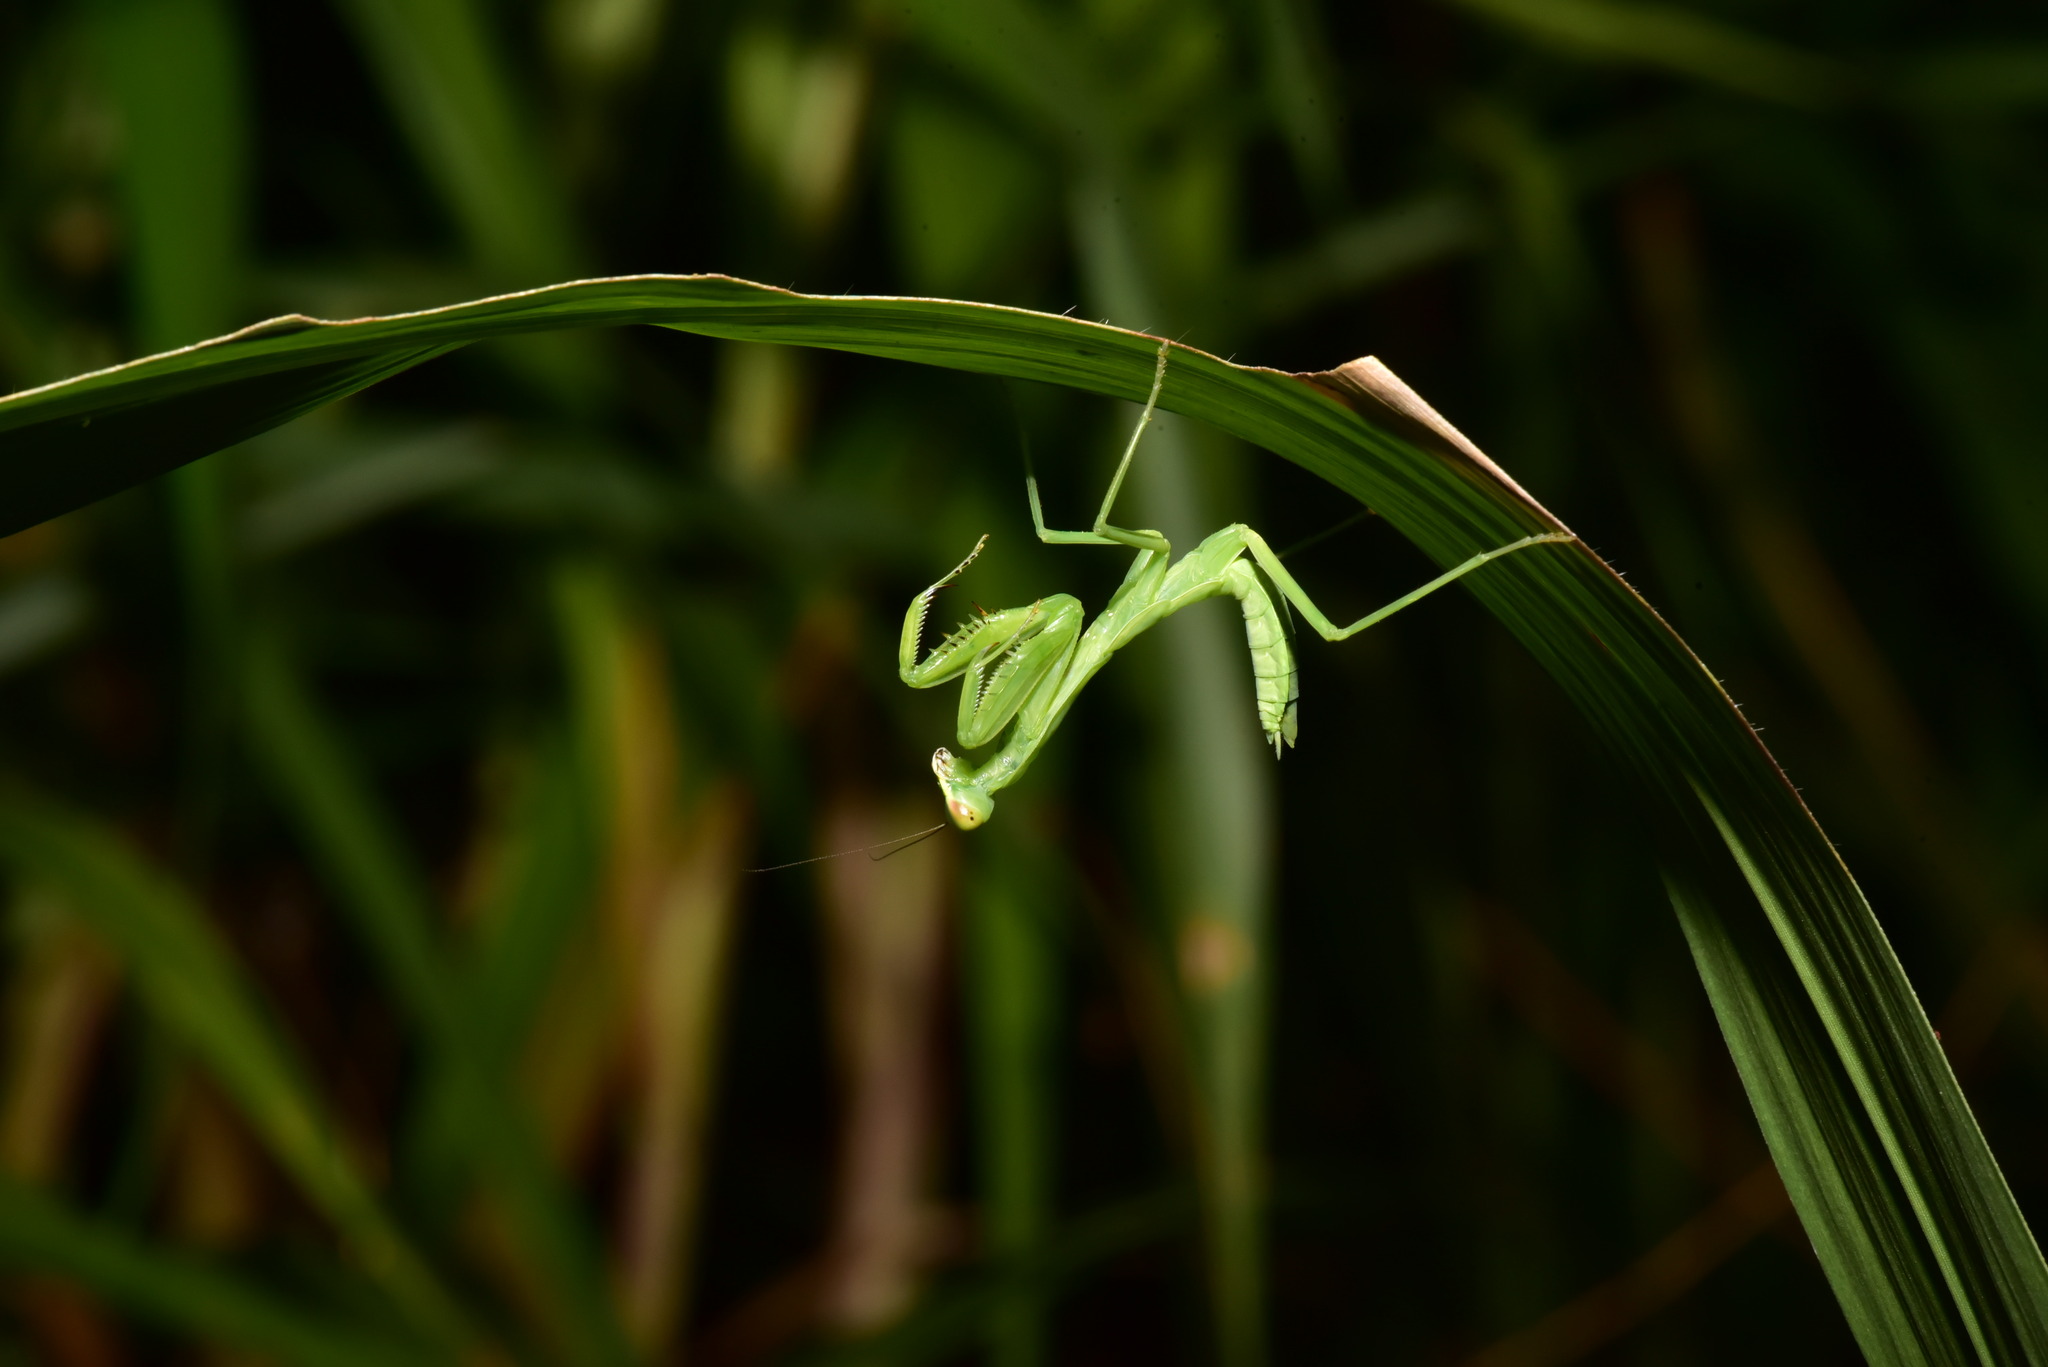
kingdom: Animalia
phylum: Arthropoda
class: Insecta
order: Mantodea
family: Mantidae
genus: Hierodula
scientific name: Hierodula patellifera
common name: Asian mantis
